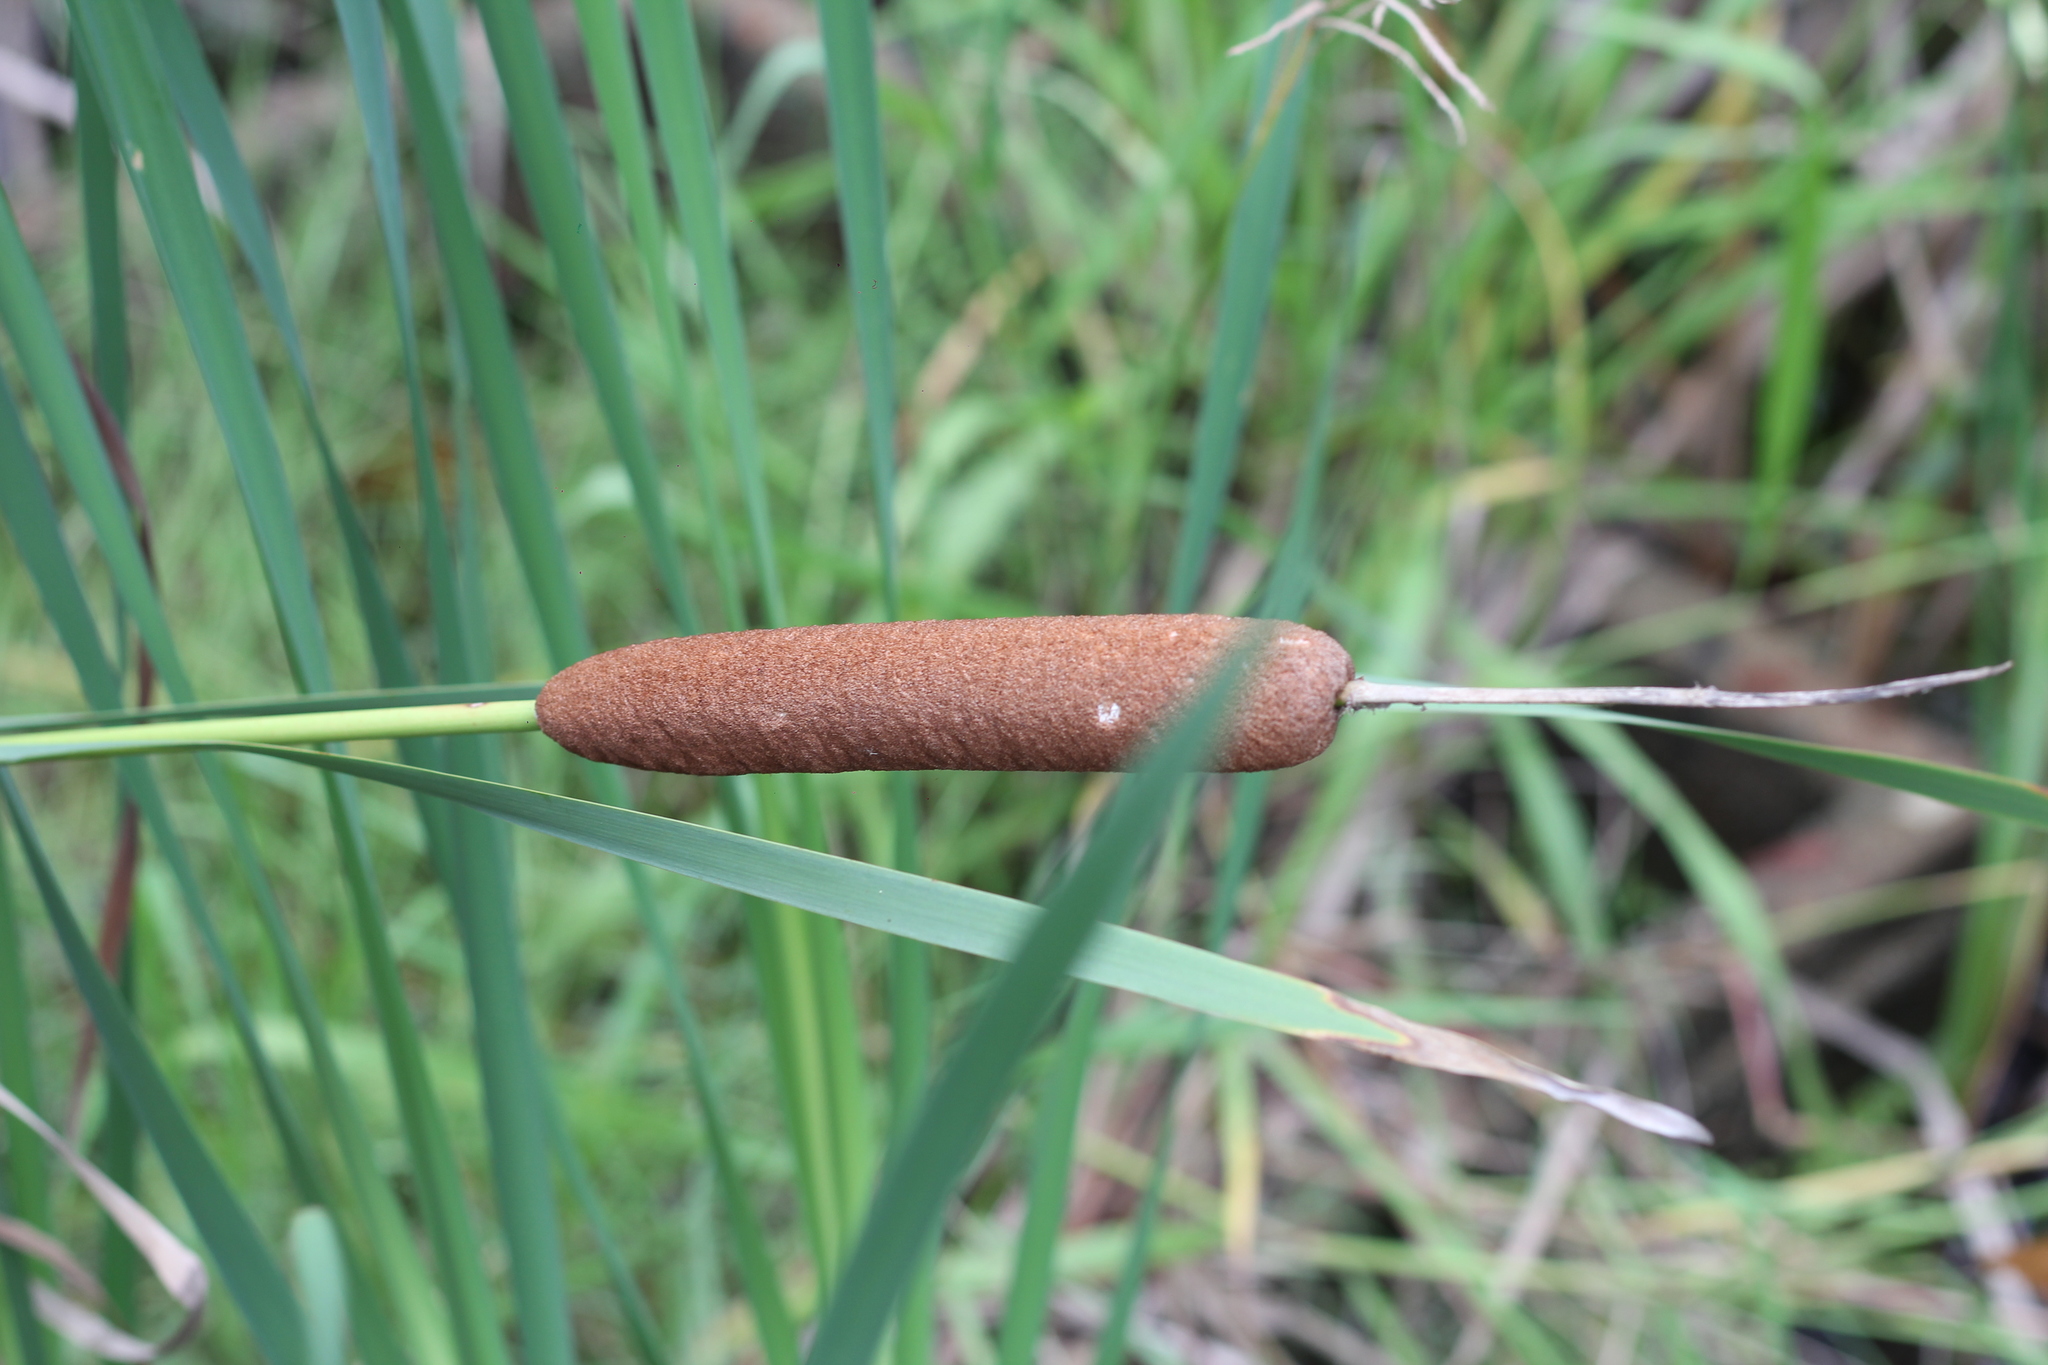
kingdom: Plantae
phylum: Tracheophyta
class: Liliopsida
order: Poales
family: Typhaceae
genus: Typha
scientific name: Typha latifolia
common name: Broadleaf cattail
